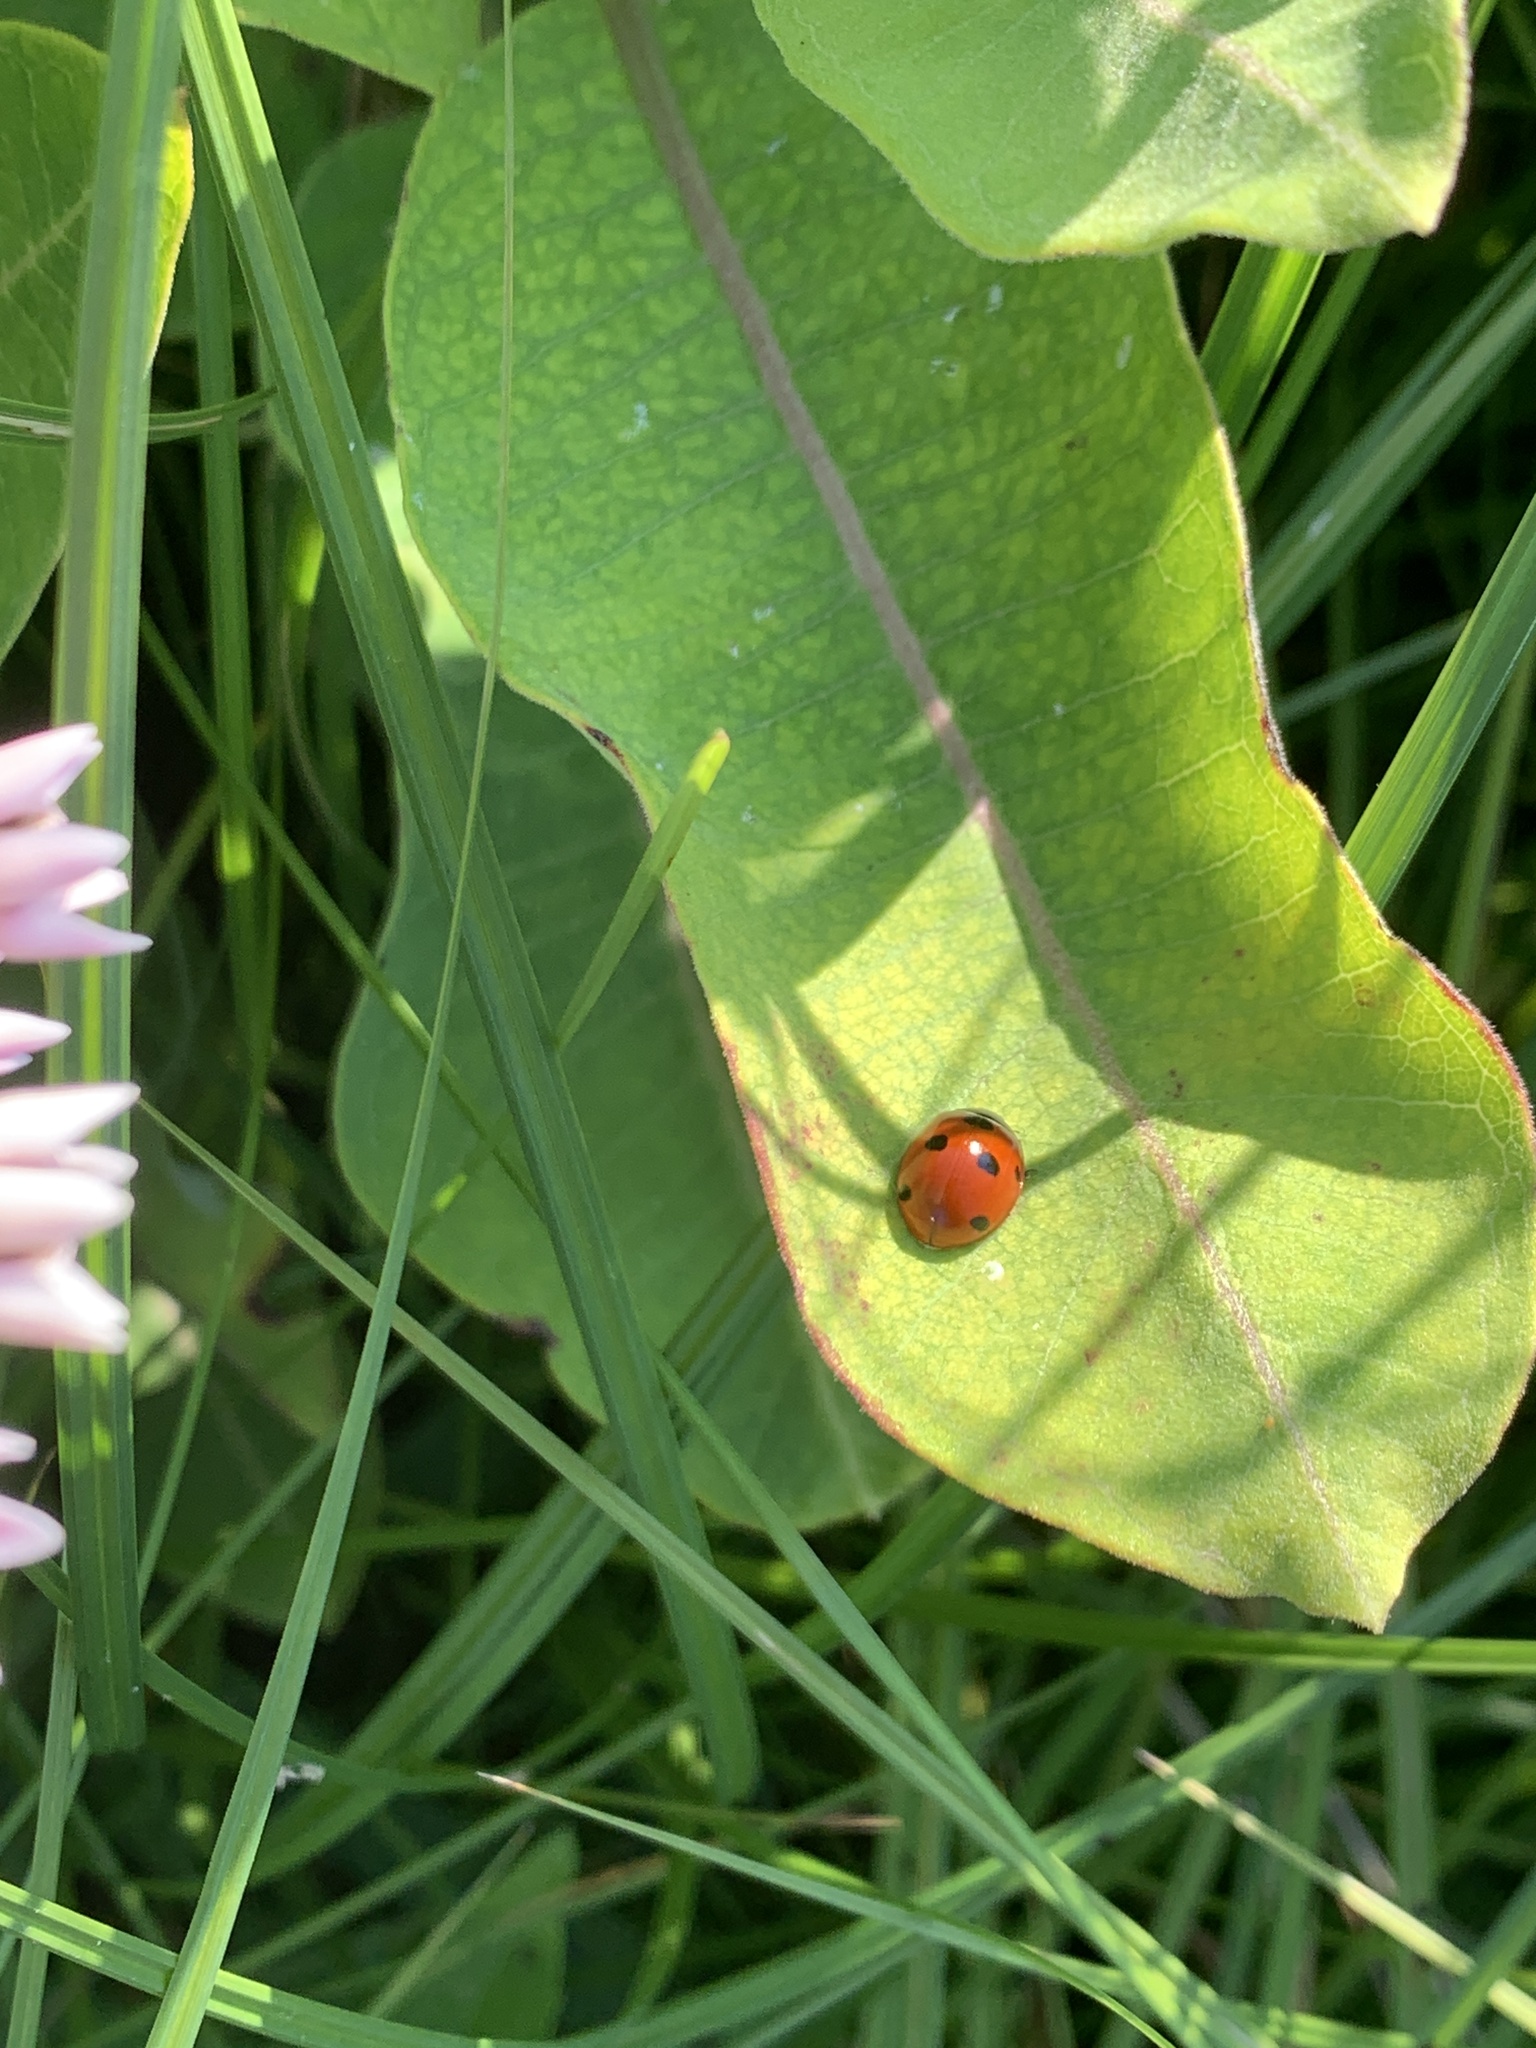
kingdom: Animalia
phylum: Arthropoda
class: Insecta
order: Coleoptera
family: Coccinellidae
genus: Coccinella
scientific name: Coccinella septempunctata
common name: Sevenspotted lady beetle
